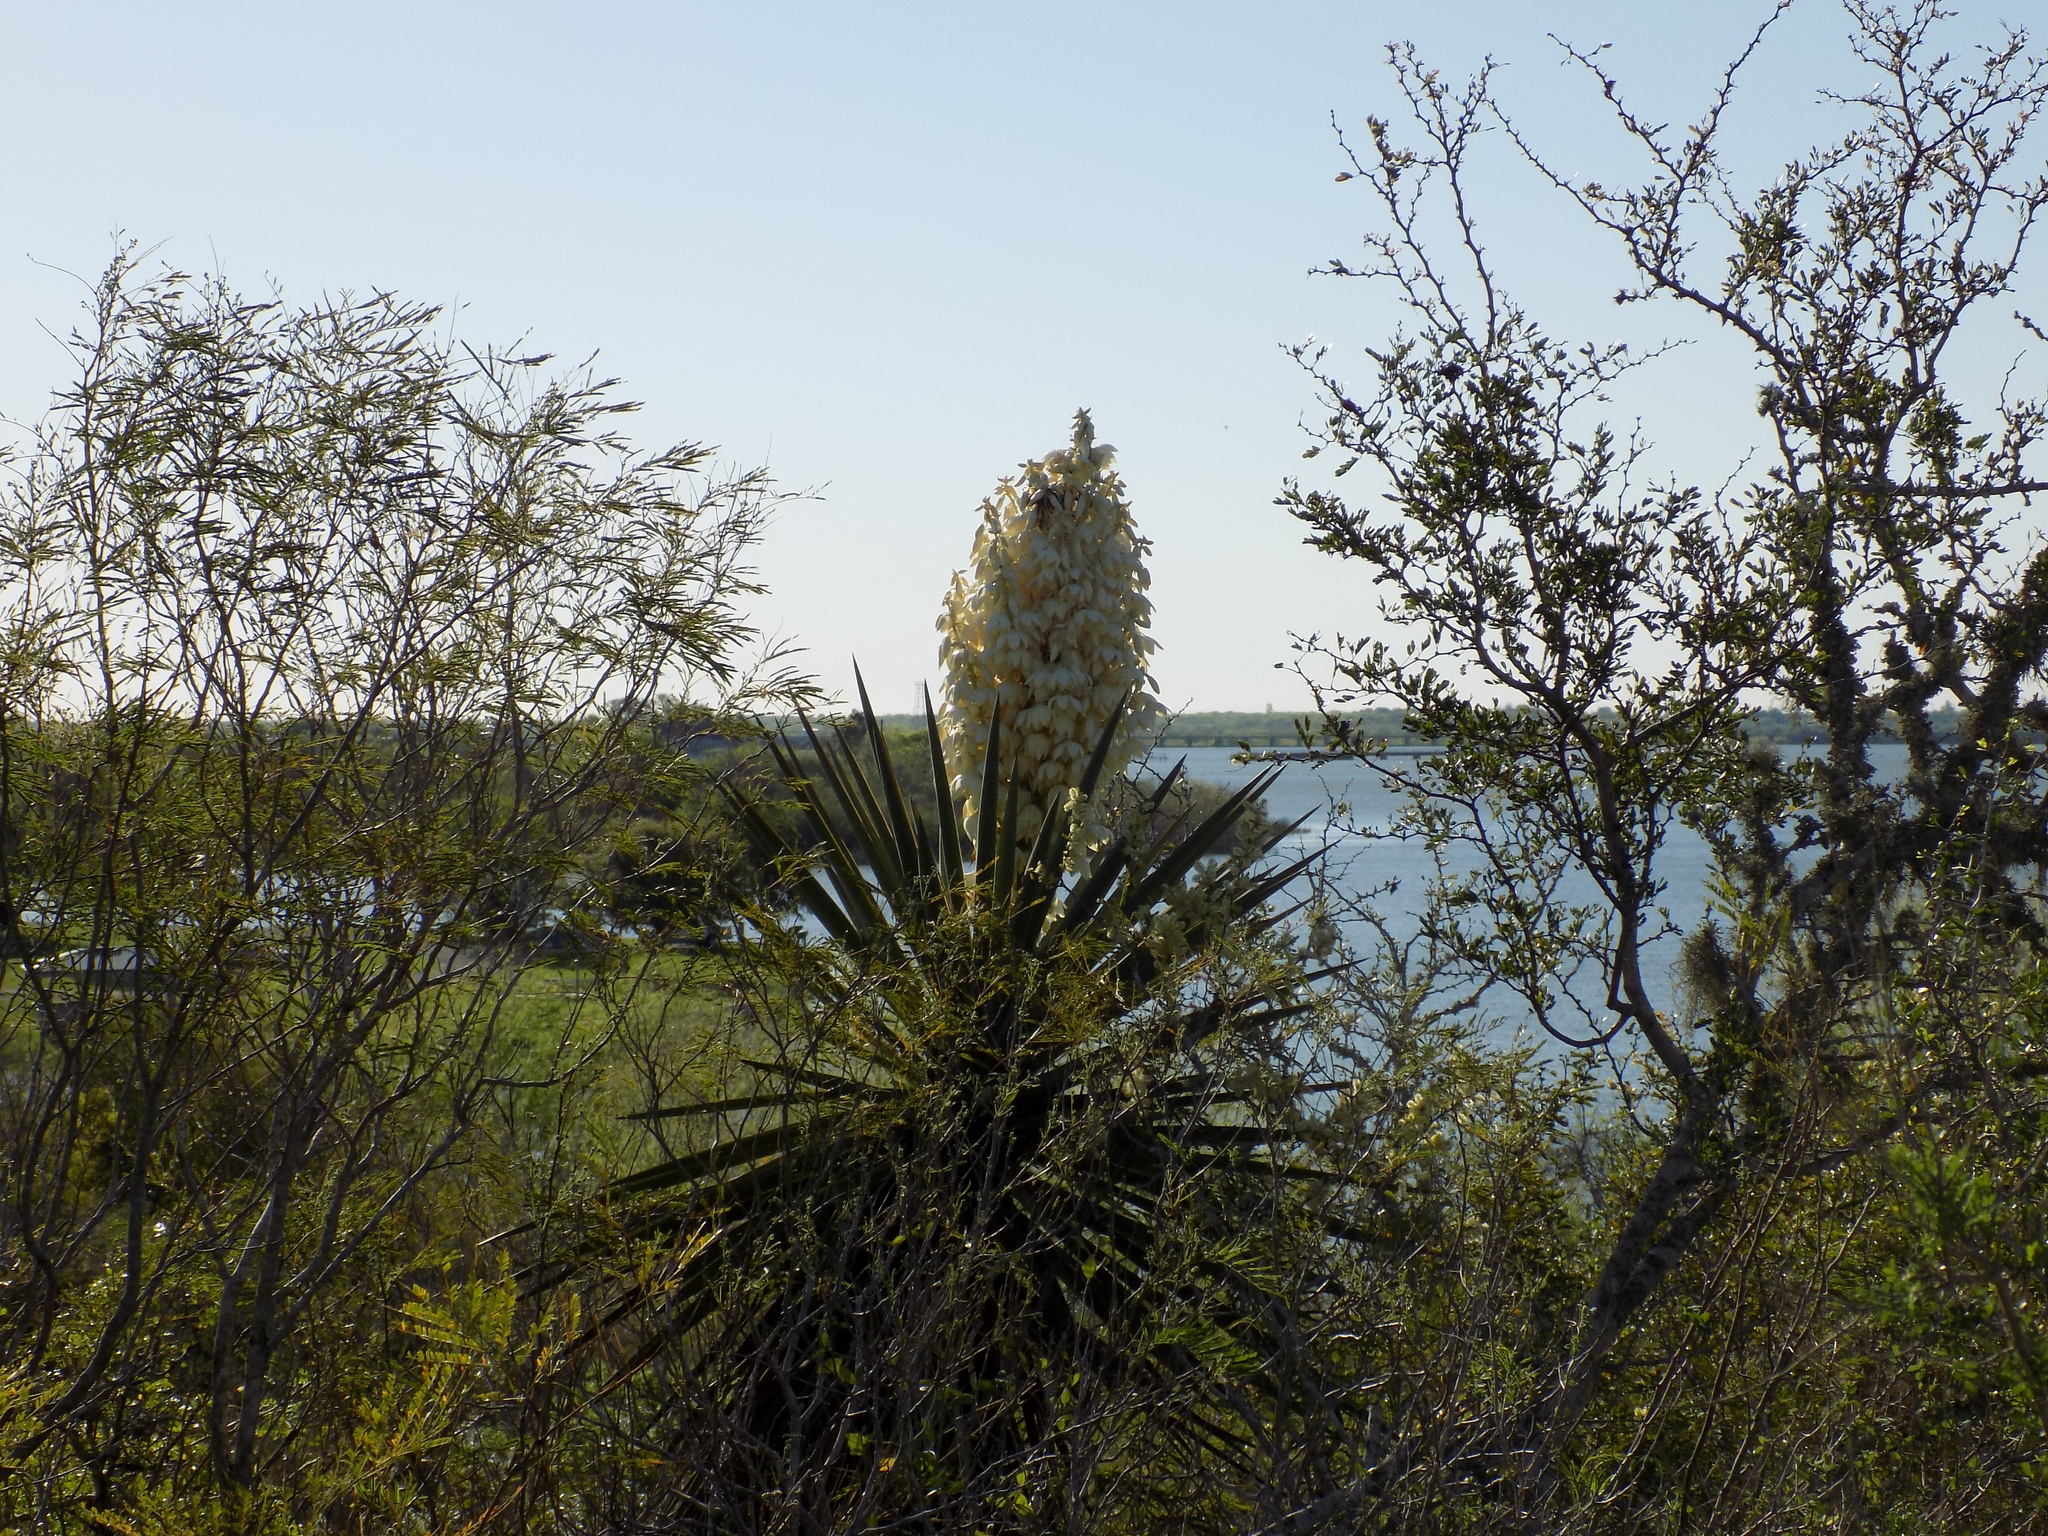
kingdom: Plantae
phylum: Tracheophyta
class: Liliopsida
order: Asparagales
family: Asparagaceae
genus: Yucca
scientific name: Yucca treculiana
